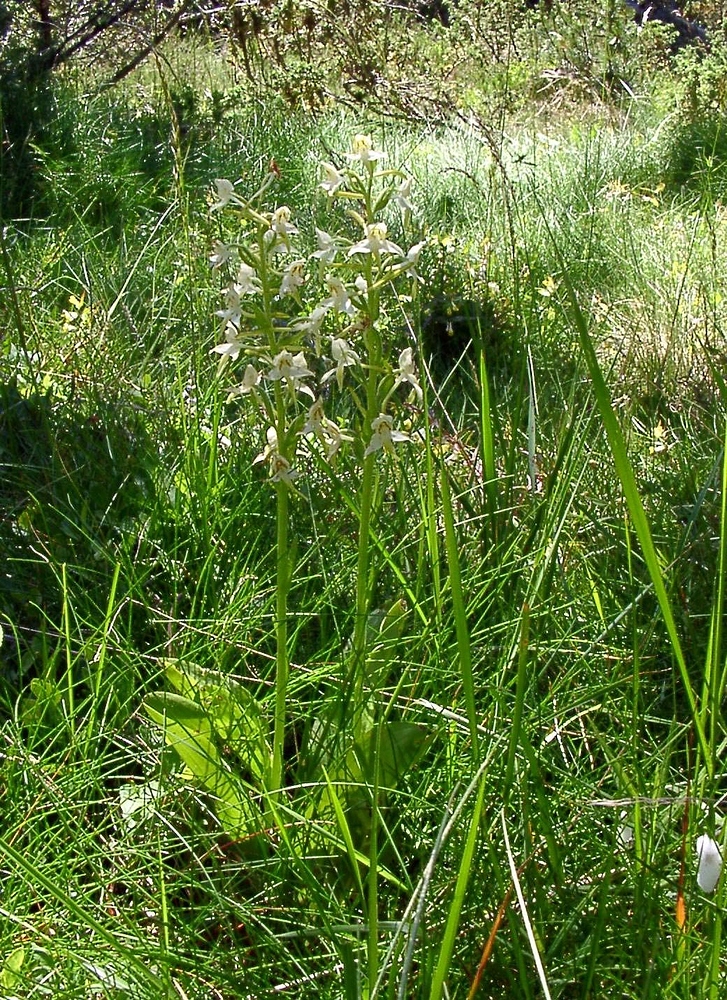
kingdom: Plantae
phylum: Tracheophyta
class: Liliopsida
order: Asparagales
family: Orchidaceae
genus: Platanthera
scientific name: Platanthera chlorantha
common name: Greater butterfly-orchid
